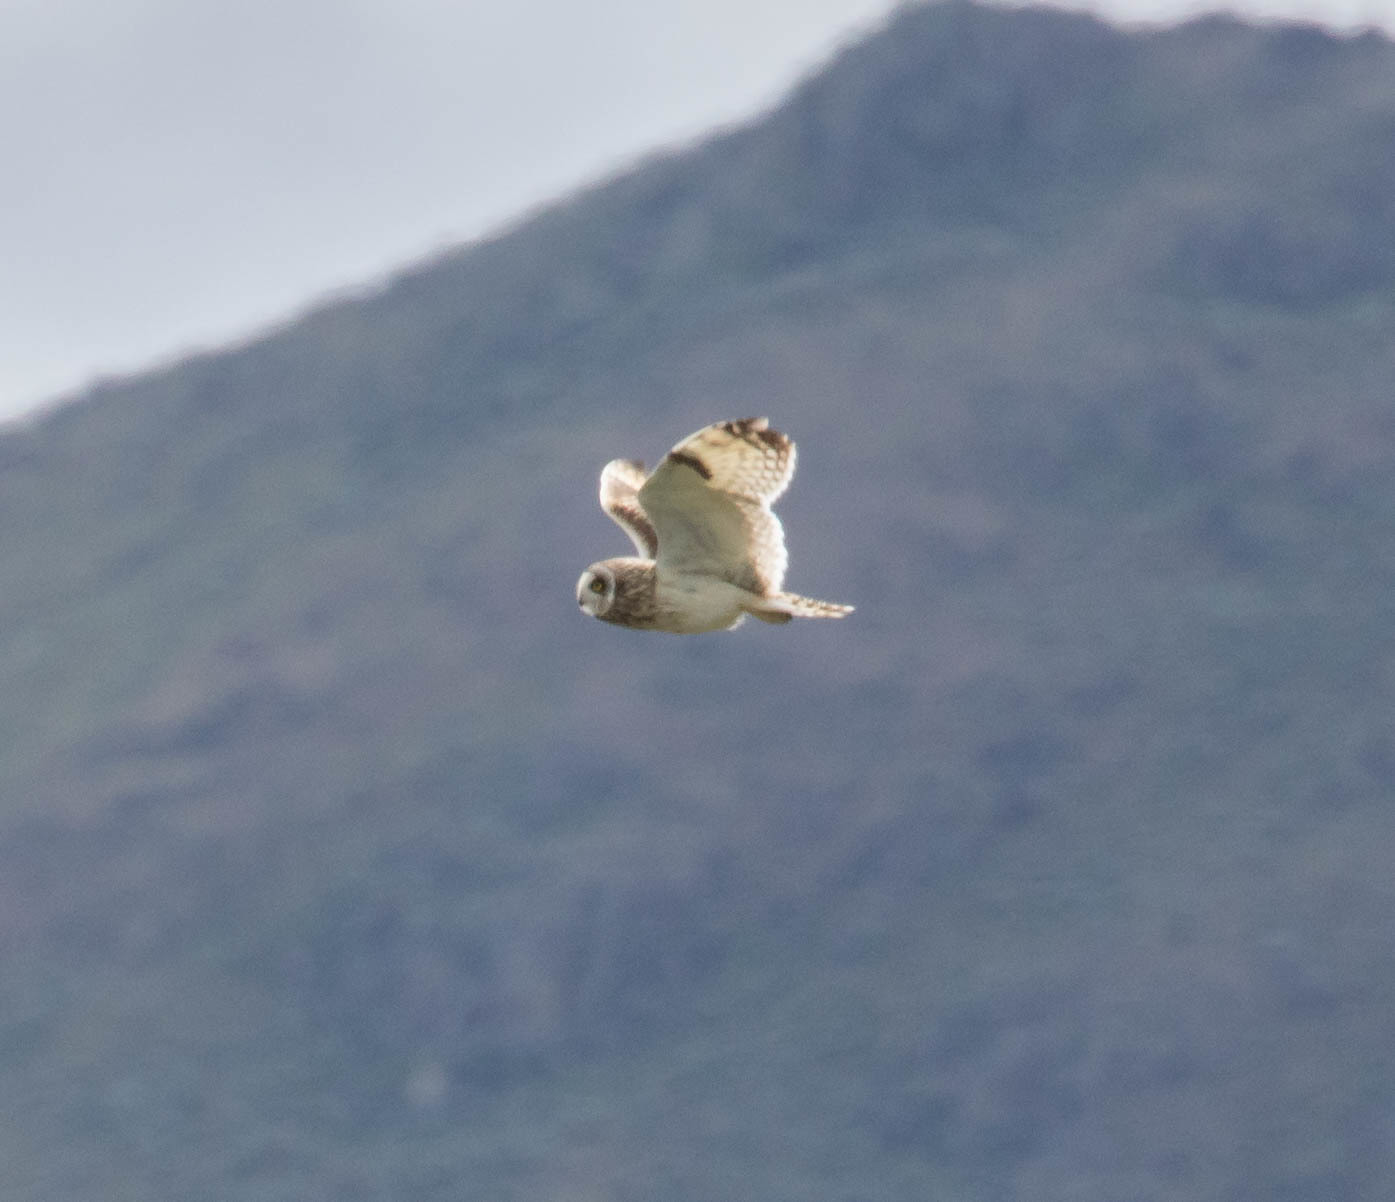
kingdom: Animalia
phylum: Chordata
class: Aves
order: Strigiformes
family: Strigidae
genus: Asio
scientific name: Asio flammeus
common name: Short-eared owl
